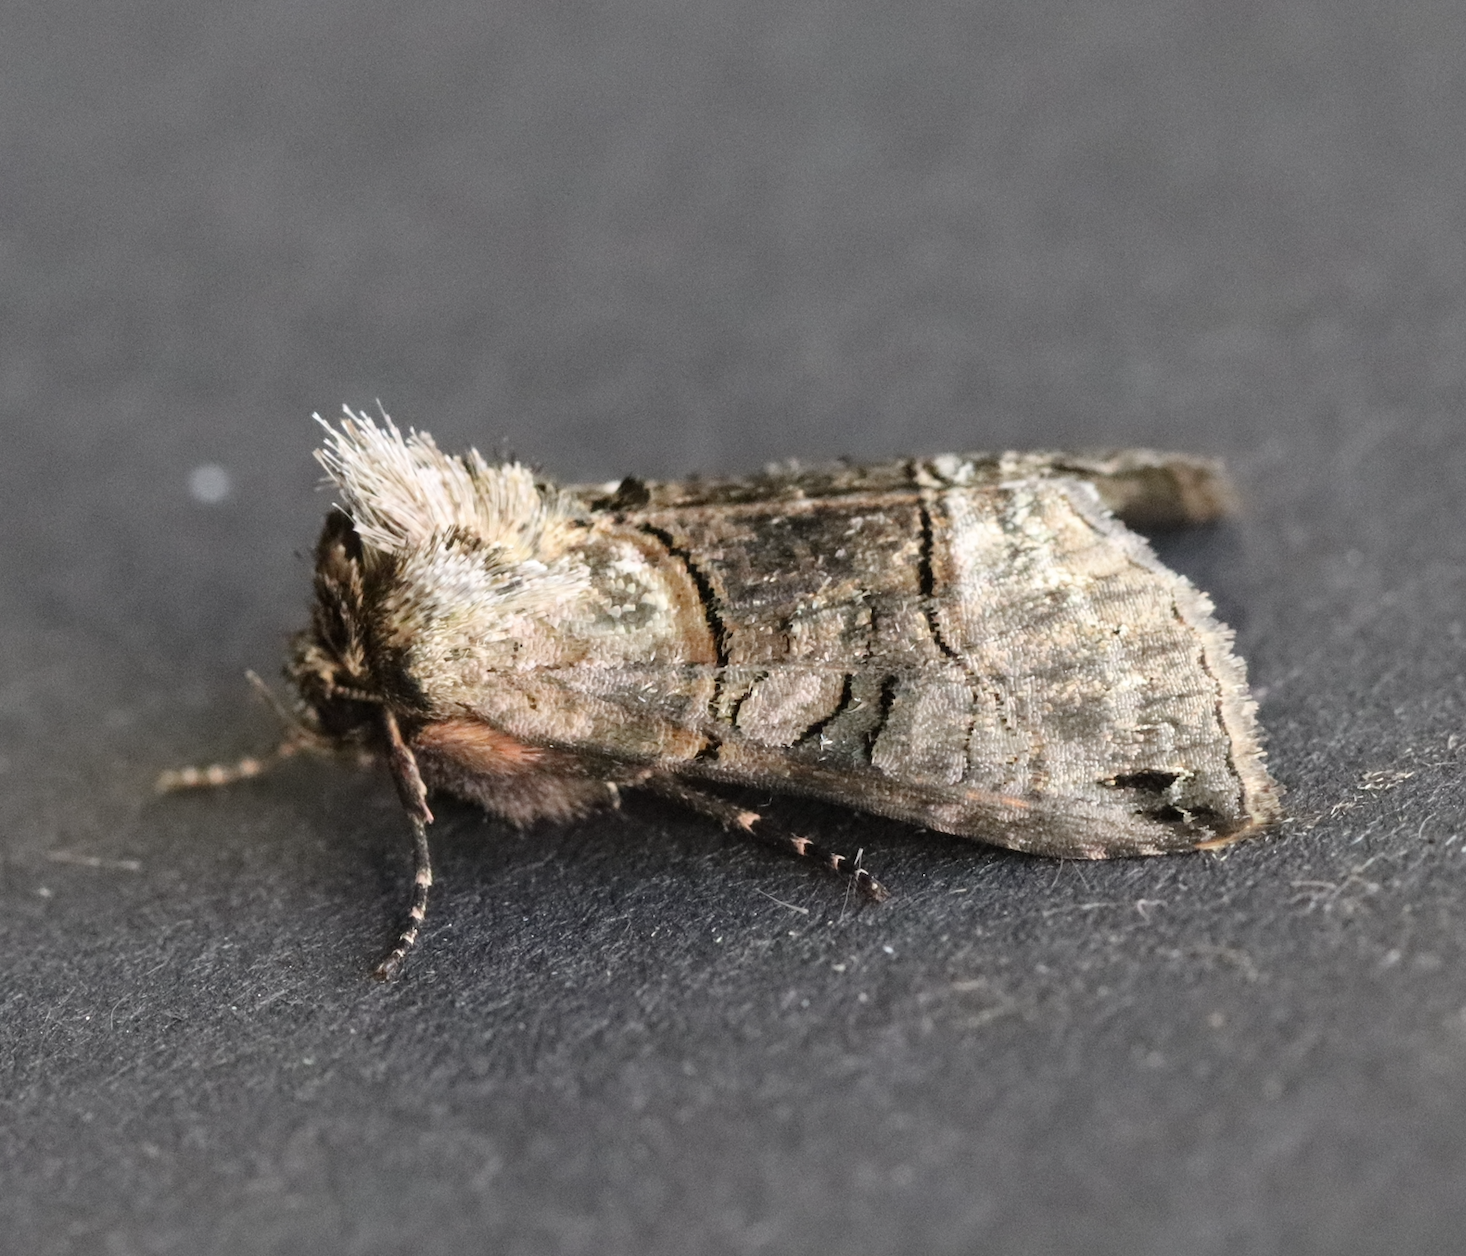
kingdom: Animalia
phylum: Arthropoda
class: Insecta
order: Lepidoptera
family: Noctuidae
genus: Abrostola
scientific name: Abrostola tripartita
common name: Spectacle
